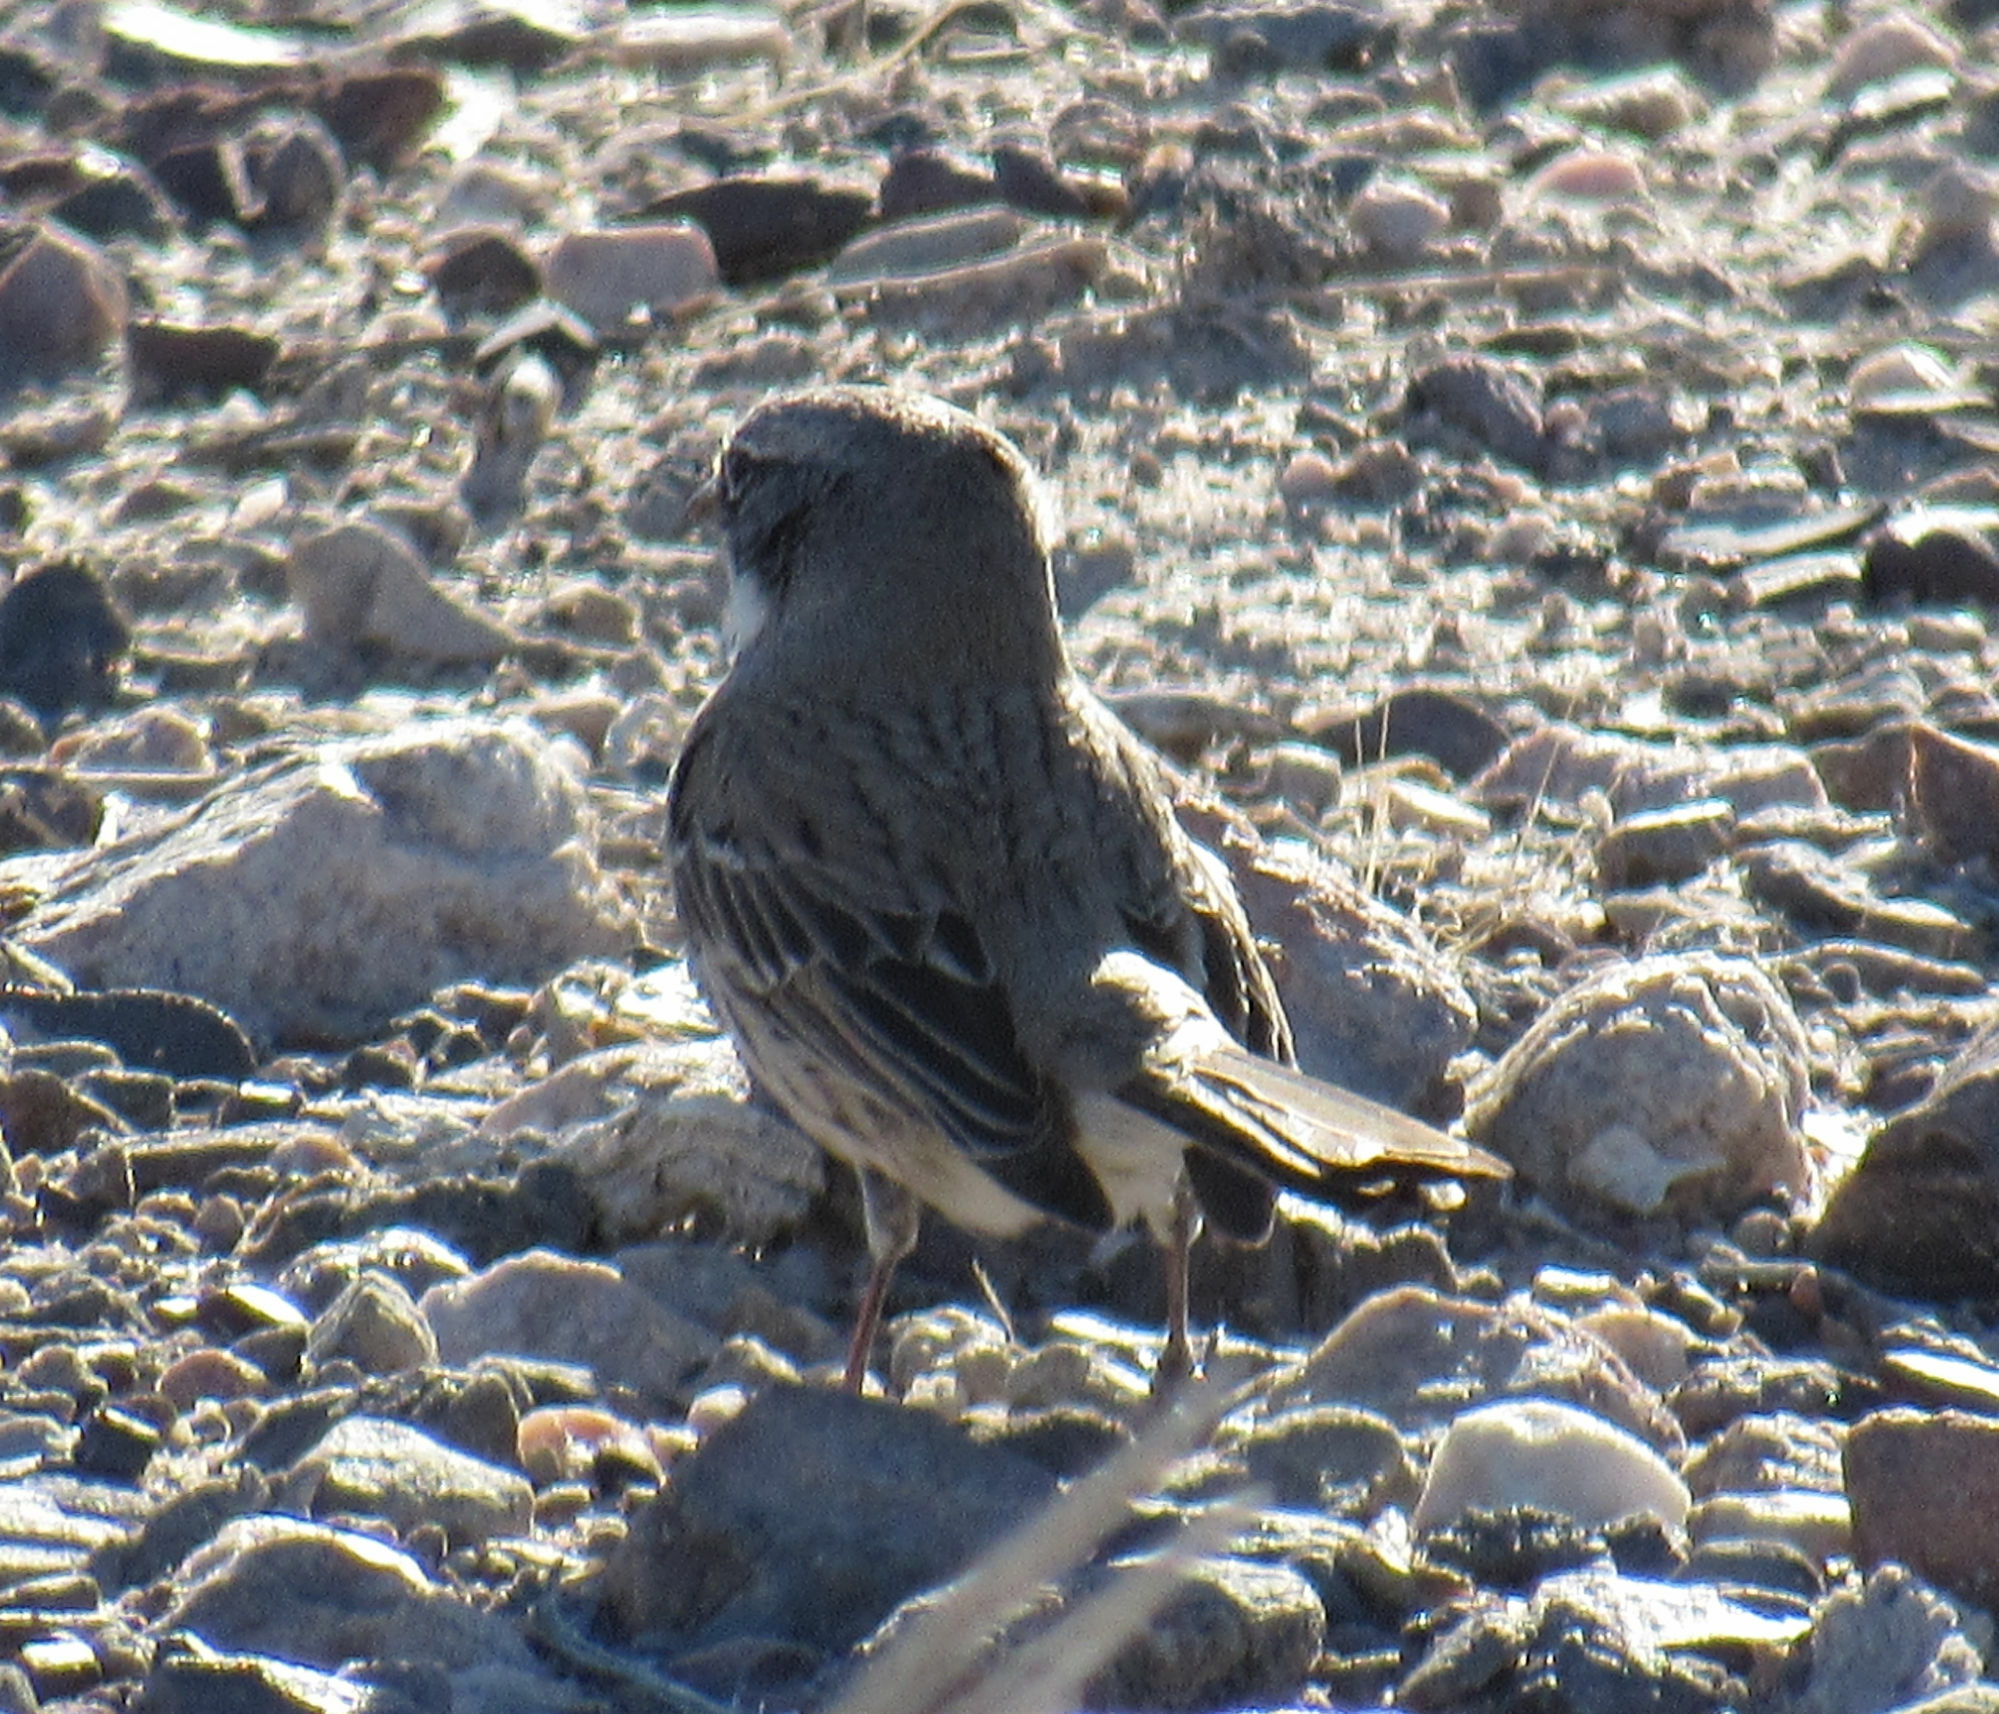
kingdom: Animalia
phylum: Chordata
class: Aves
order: Passeriformes
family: Passerellidae
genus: Artemisiospiza
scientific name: Artemisiospiza nevadensis
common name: Sagebrush sparrow
